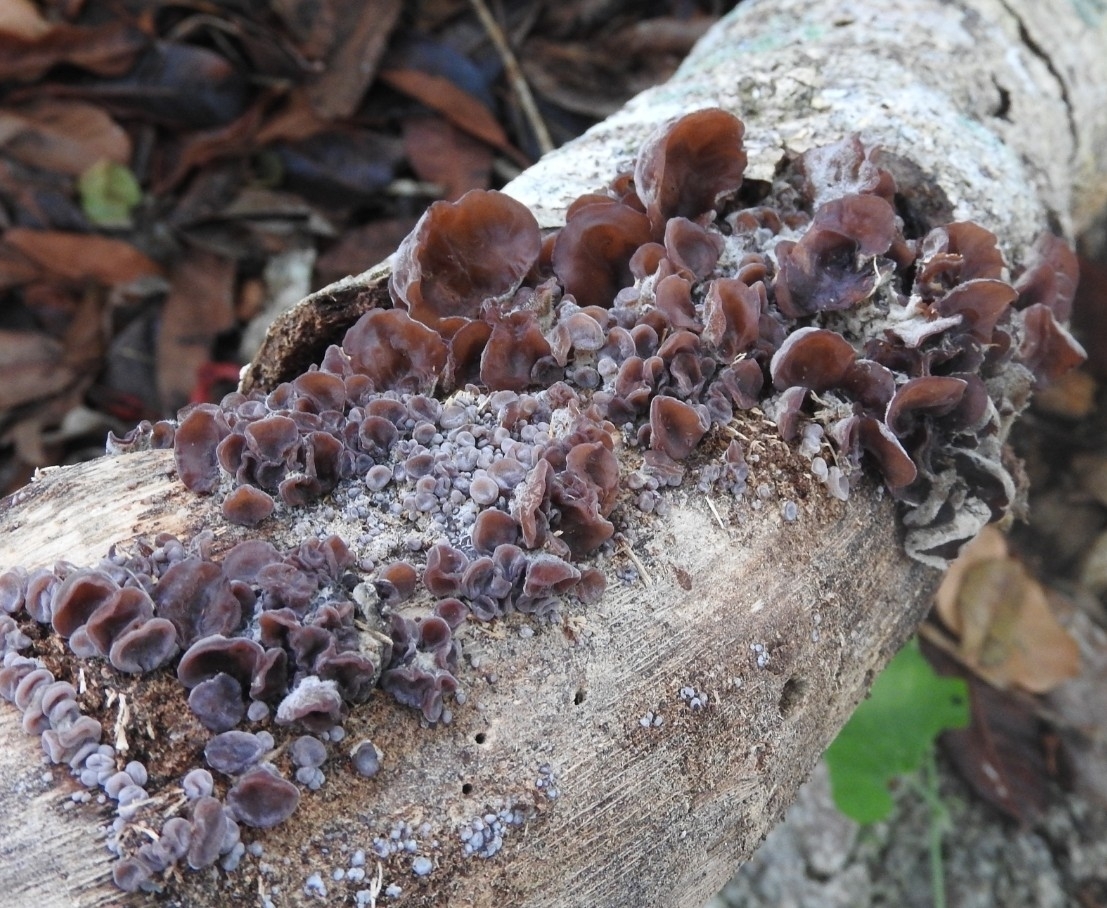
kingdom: Fungi
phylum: Basidiomycota
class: Agaricomycetes
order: Auriculariales
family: Auriculariaceae
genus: Auricularia
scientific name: Auricularia cornea
